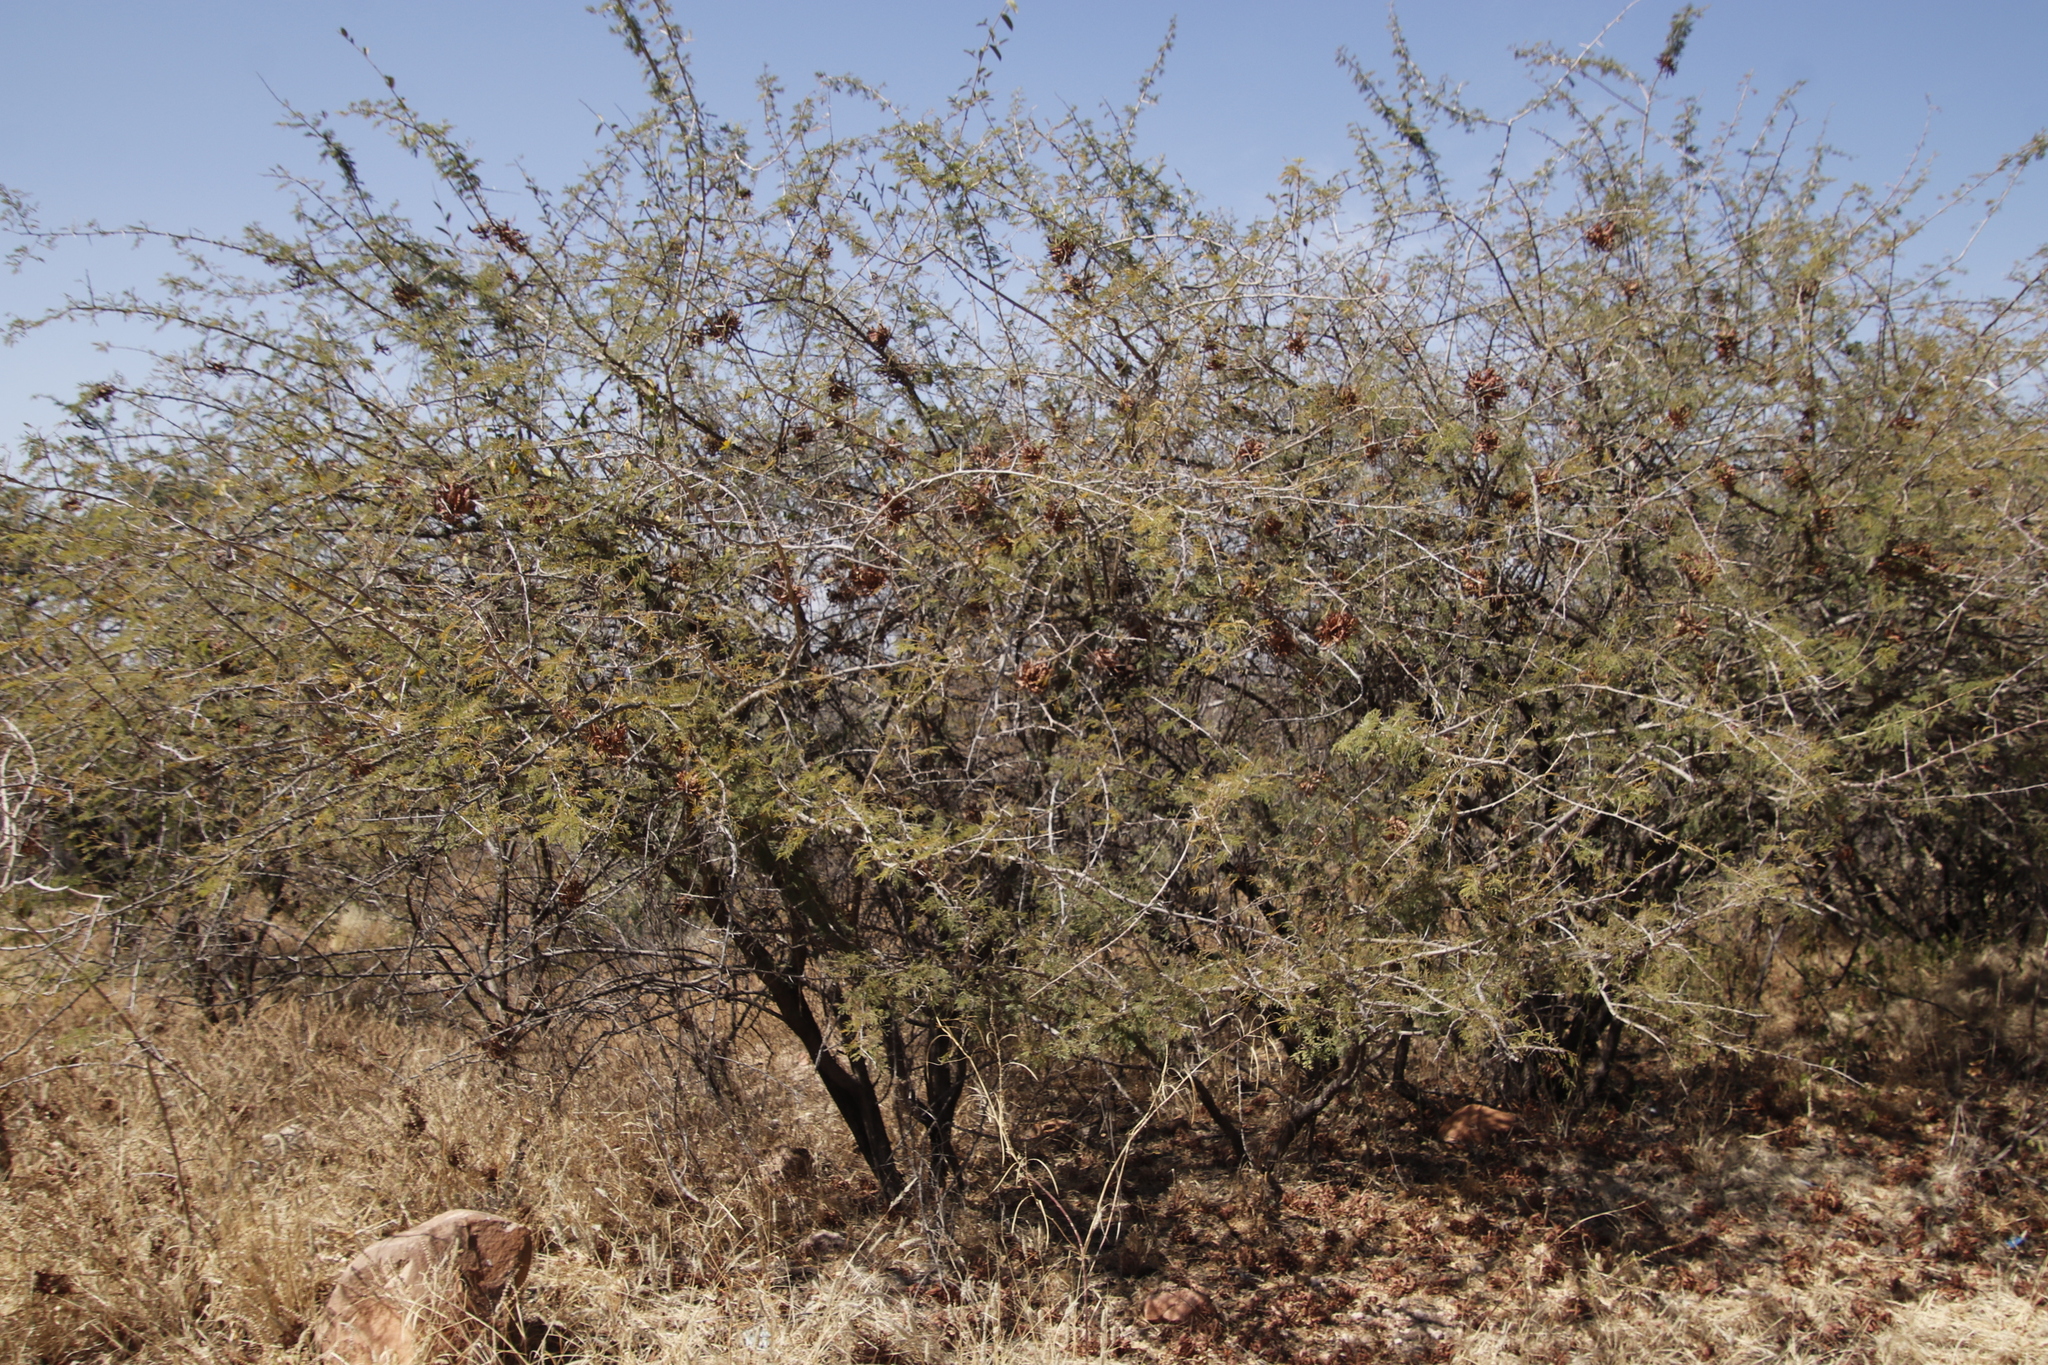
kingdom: Plantae
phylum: Tracheophyta
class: Magnoliopsida
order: Fabales
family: Fabaceae
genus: Dichrostachys
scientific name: Dichrostachys cinerea
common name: Sicklebush
